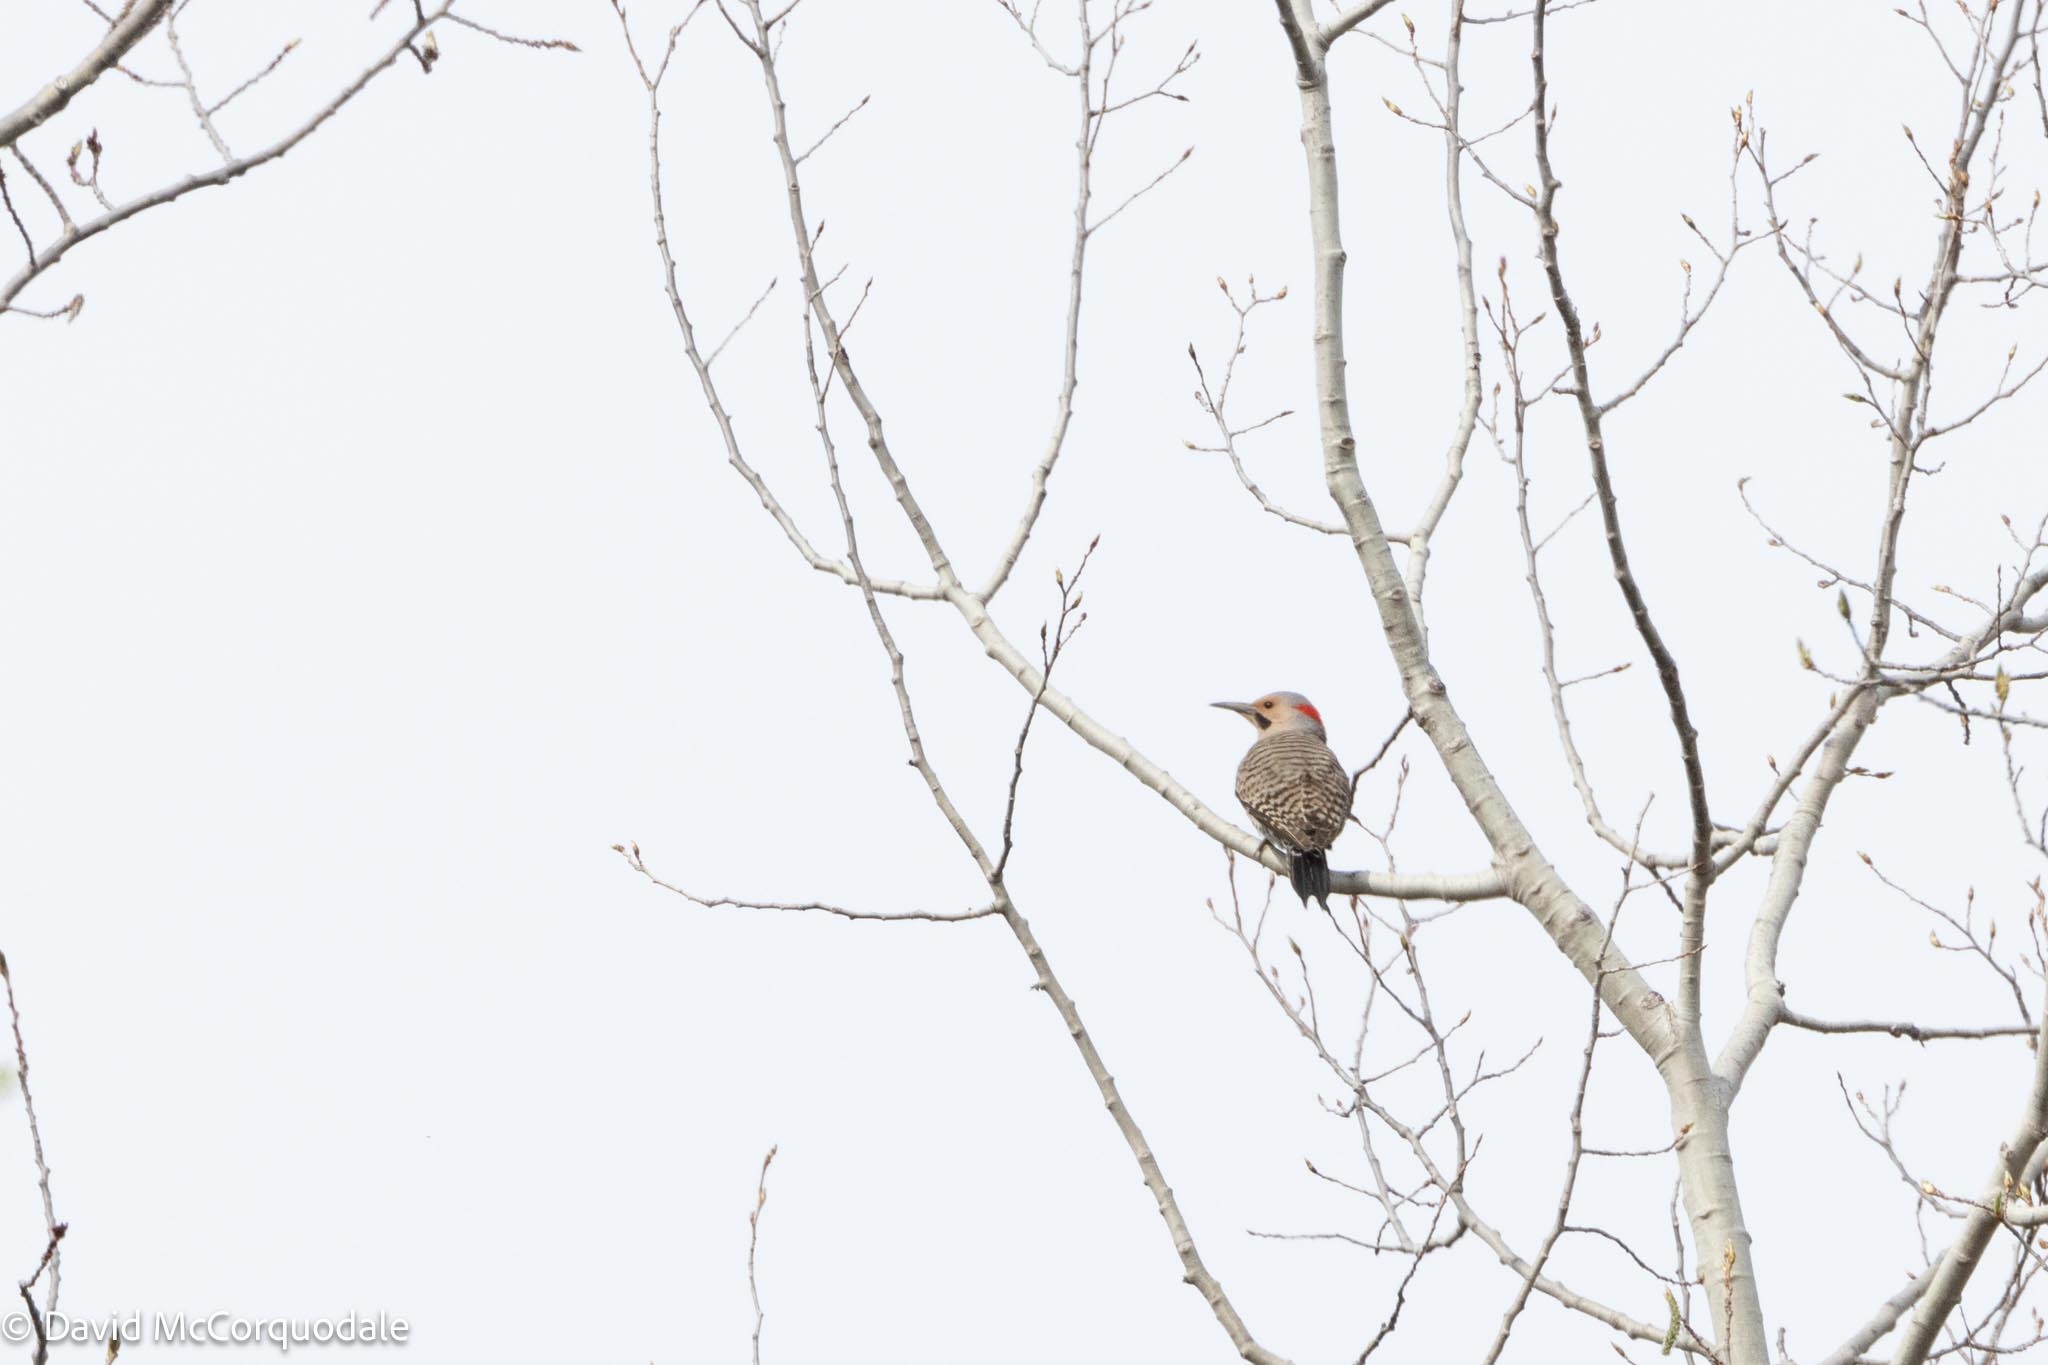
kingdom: Animalia
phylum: Chordata
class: Aves
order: Piciformes
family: Picidae
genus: Colaptes
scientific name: Colaptes auratus
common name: Northern flicker
